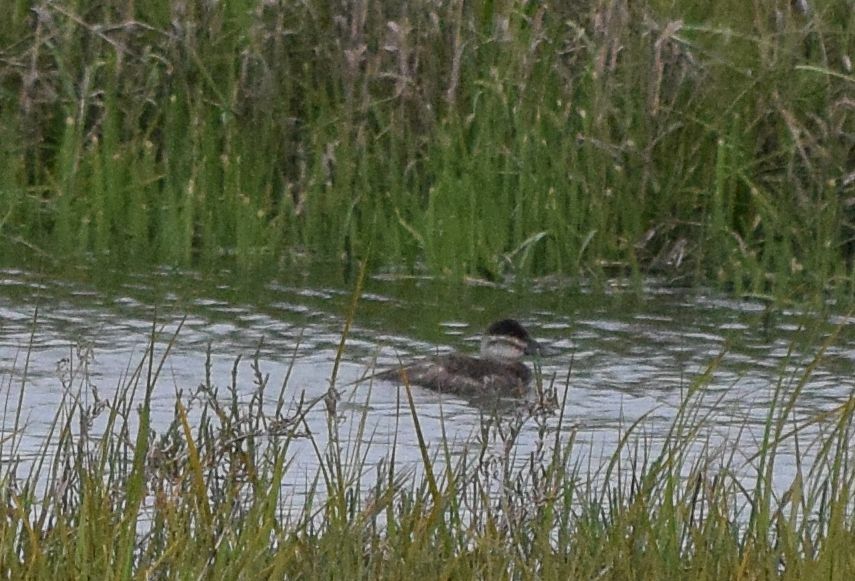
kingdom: Animalia
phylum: Chordata
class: Aves
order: Anseriformes
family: Anatidae
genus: Oxyura
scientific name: Oxyura jamaicensis
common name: Ruddy duck
